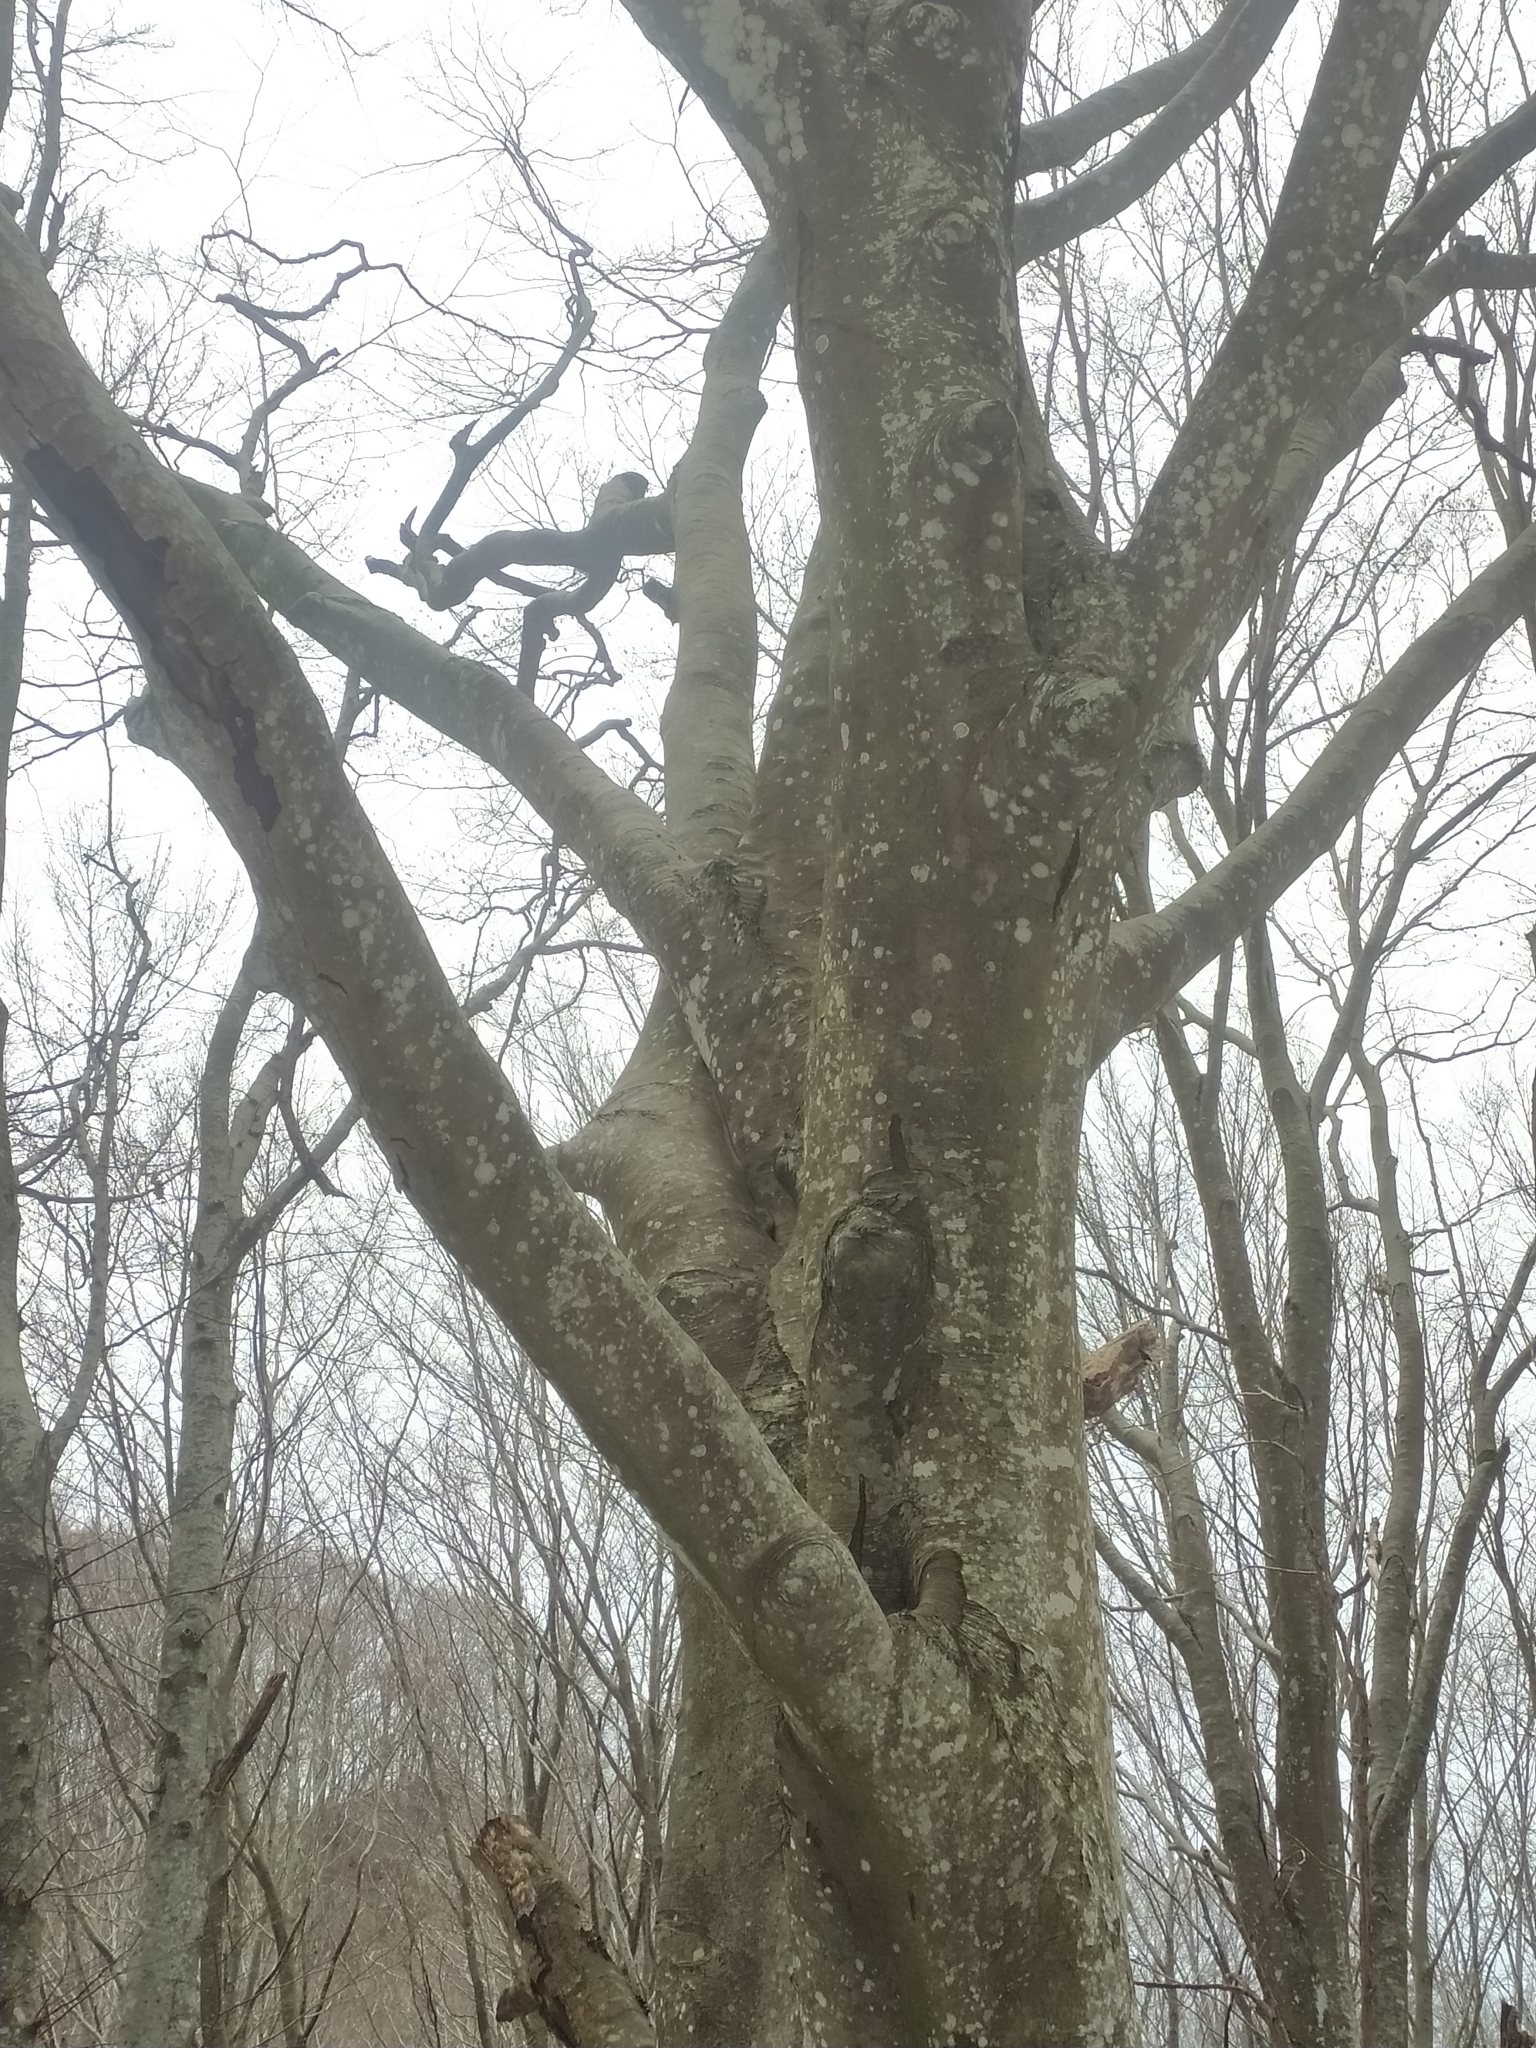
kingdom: Plantae
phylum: Tracheophyta
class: Magnoliopsida
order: Fagales
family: Fagaceae
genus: Fagus
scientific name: Fagus sylvatica
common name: Beech
